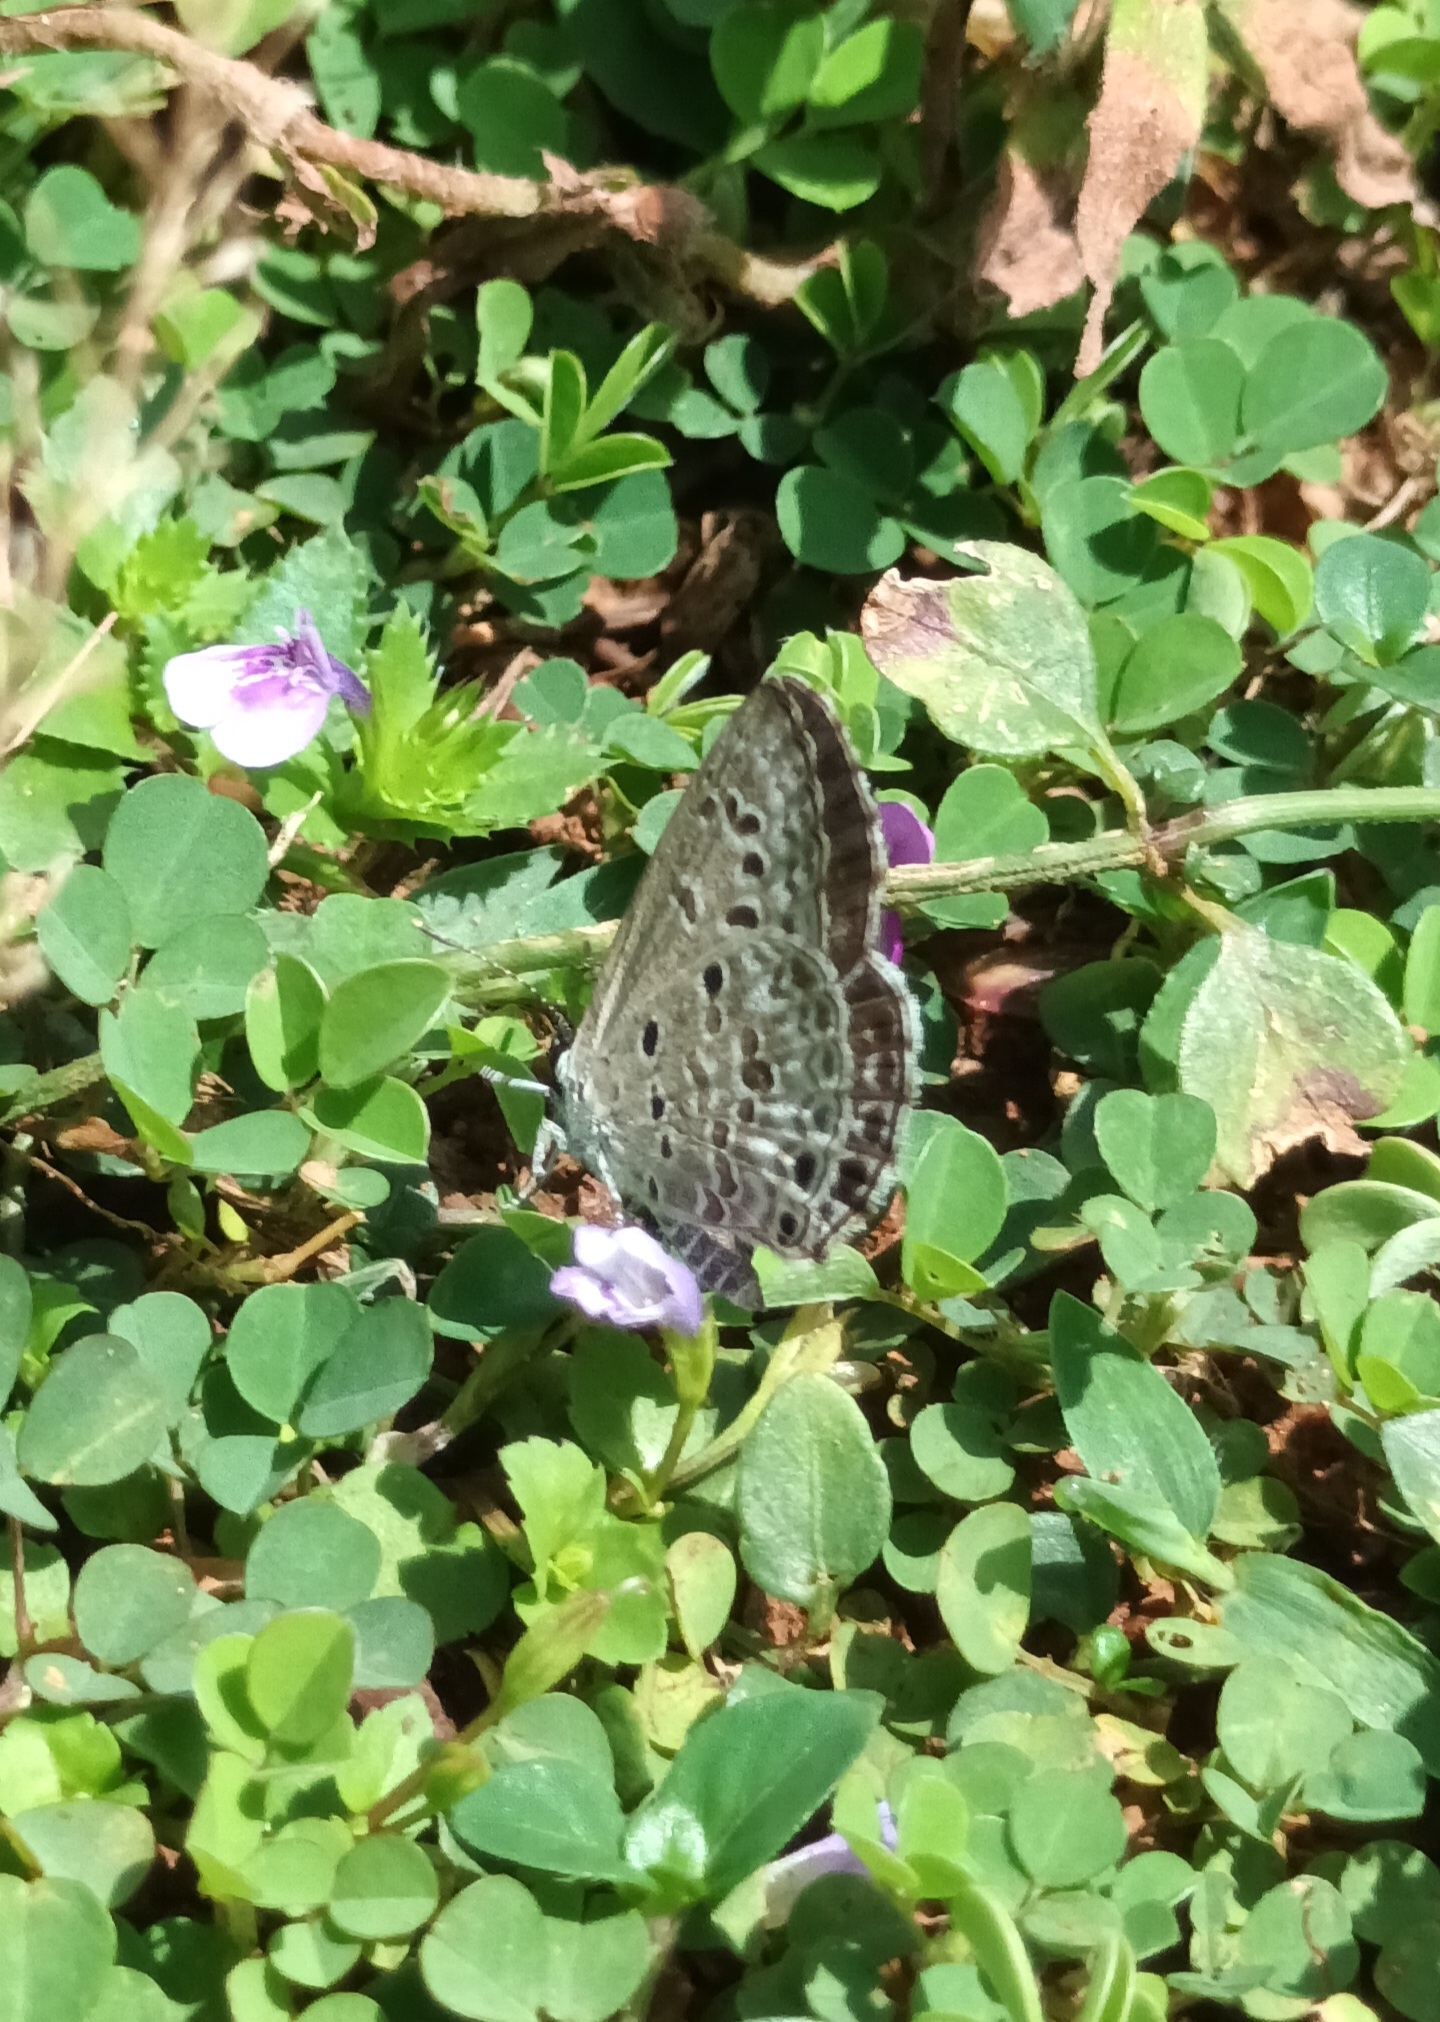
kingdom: Animalia
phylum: Arthropoda
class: Insecta
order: Lepidoptera
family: Lycaenidae
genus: Chilades
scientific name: Chilades laius
